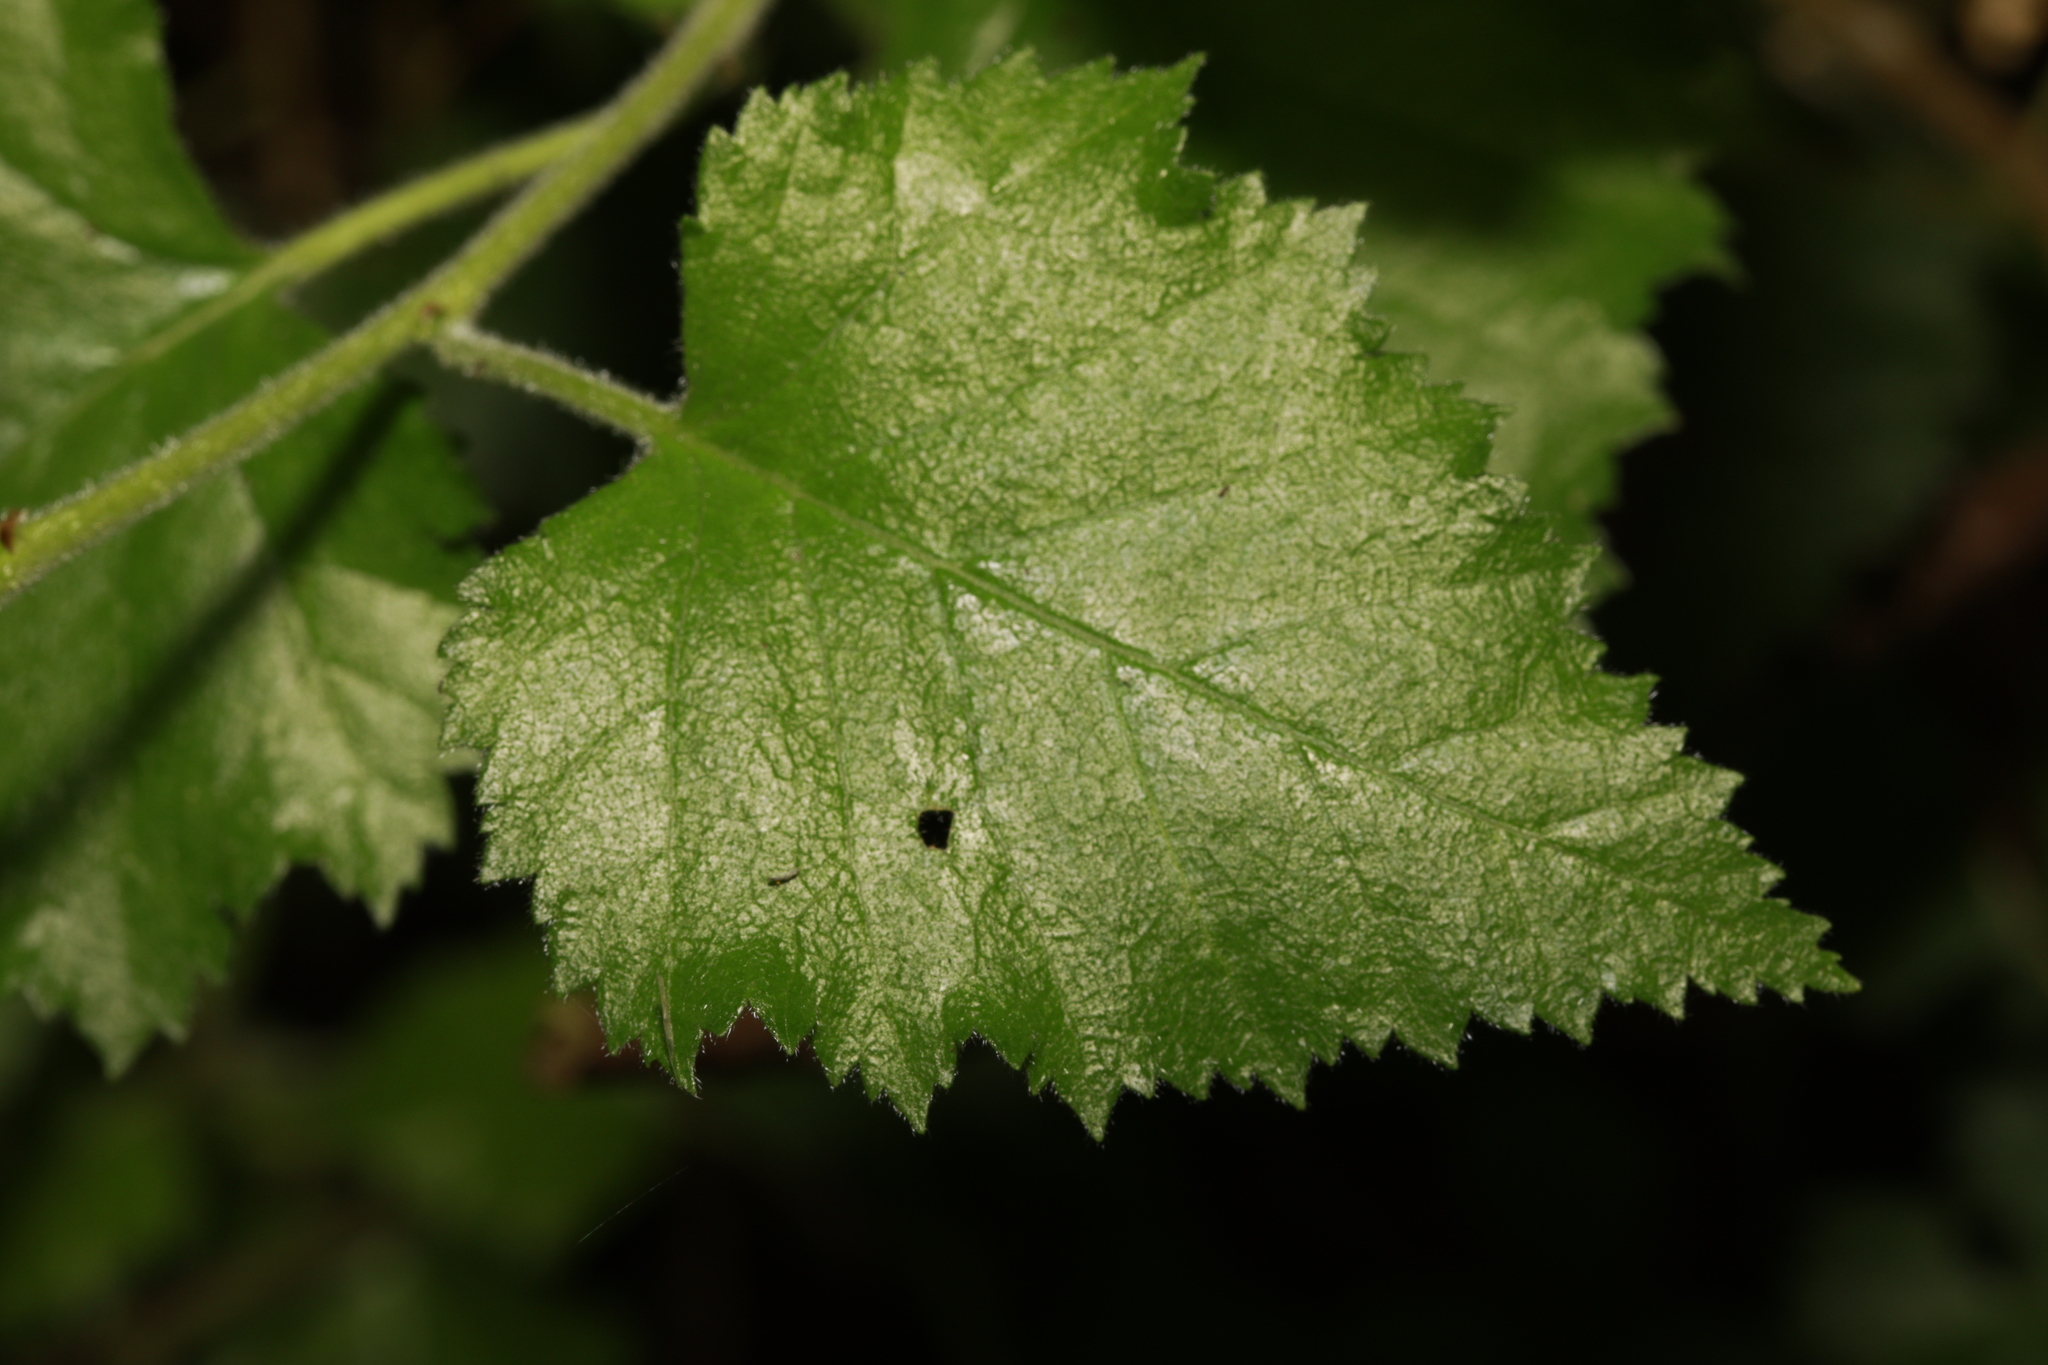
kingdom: Plantae
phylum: Tracheophyta
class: Magnoliopsida
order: Fagales
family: Betulaceae
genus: Betula
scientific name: Betula pubescens
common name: Downy birch
